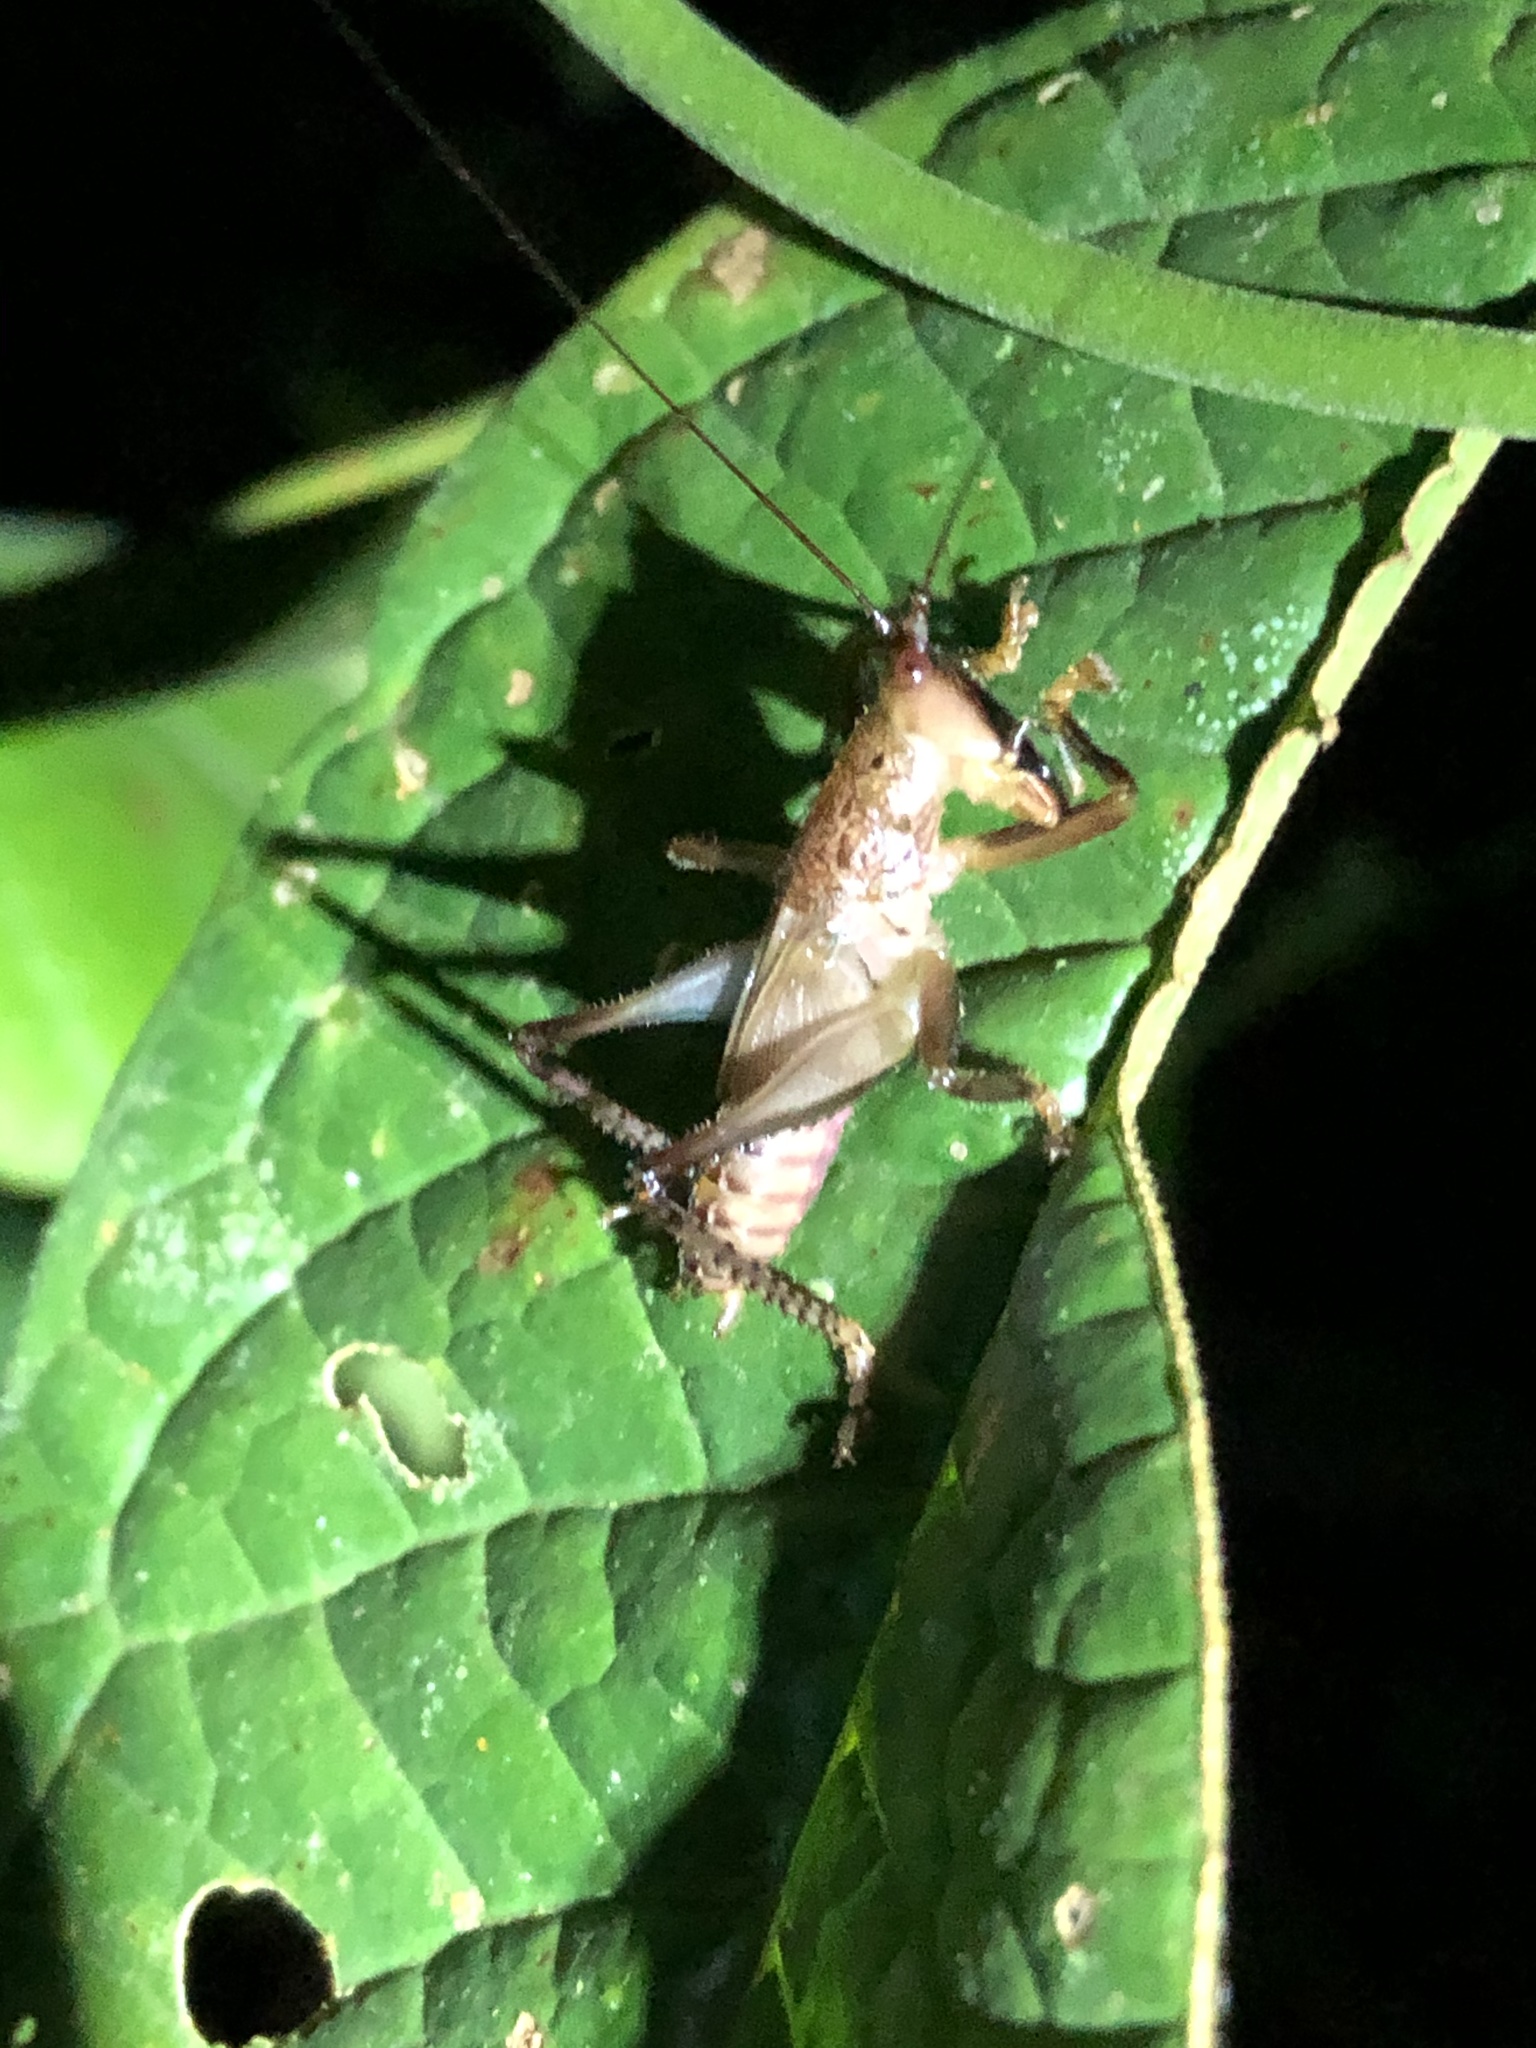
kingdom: Animalia
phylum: Arthropoda
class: Insecta
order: Orthoptera
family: Tettigoniidae
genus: Eschatoceras
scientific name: Eschatoceras spinifrons
